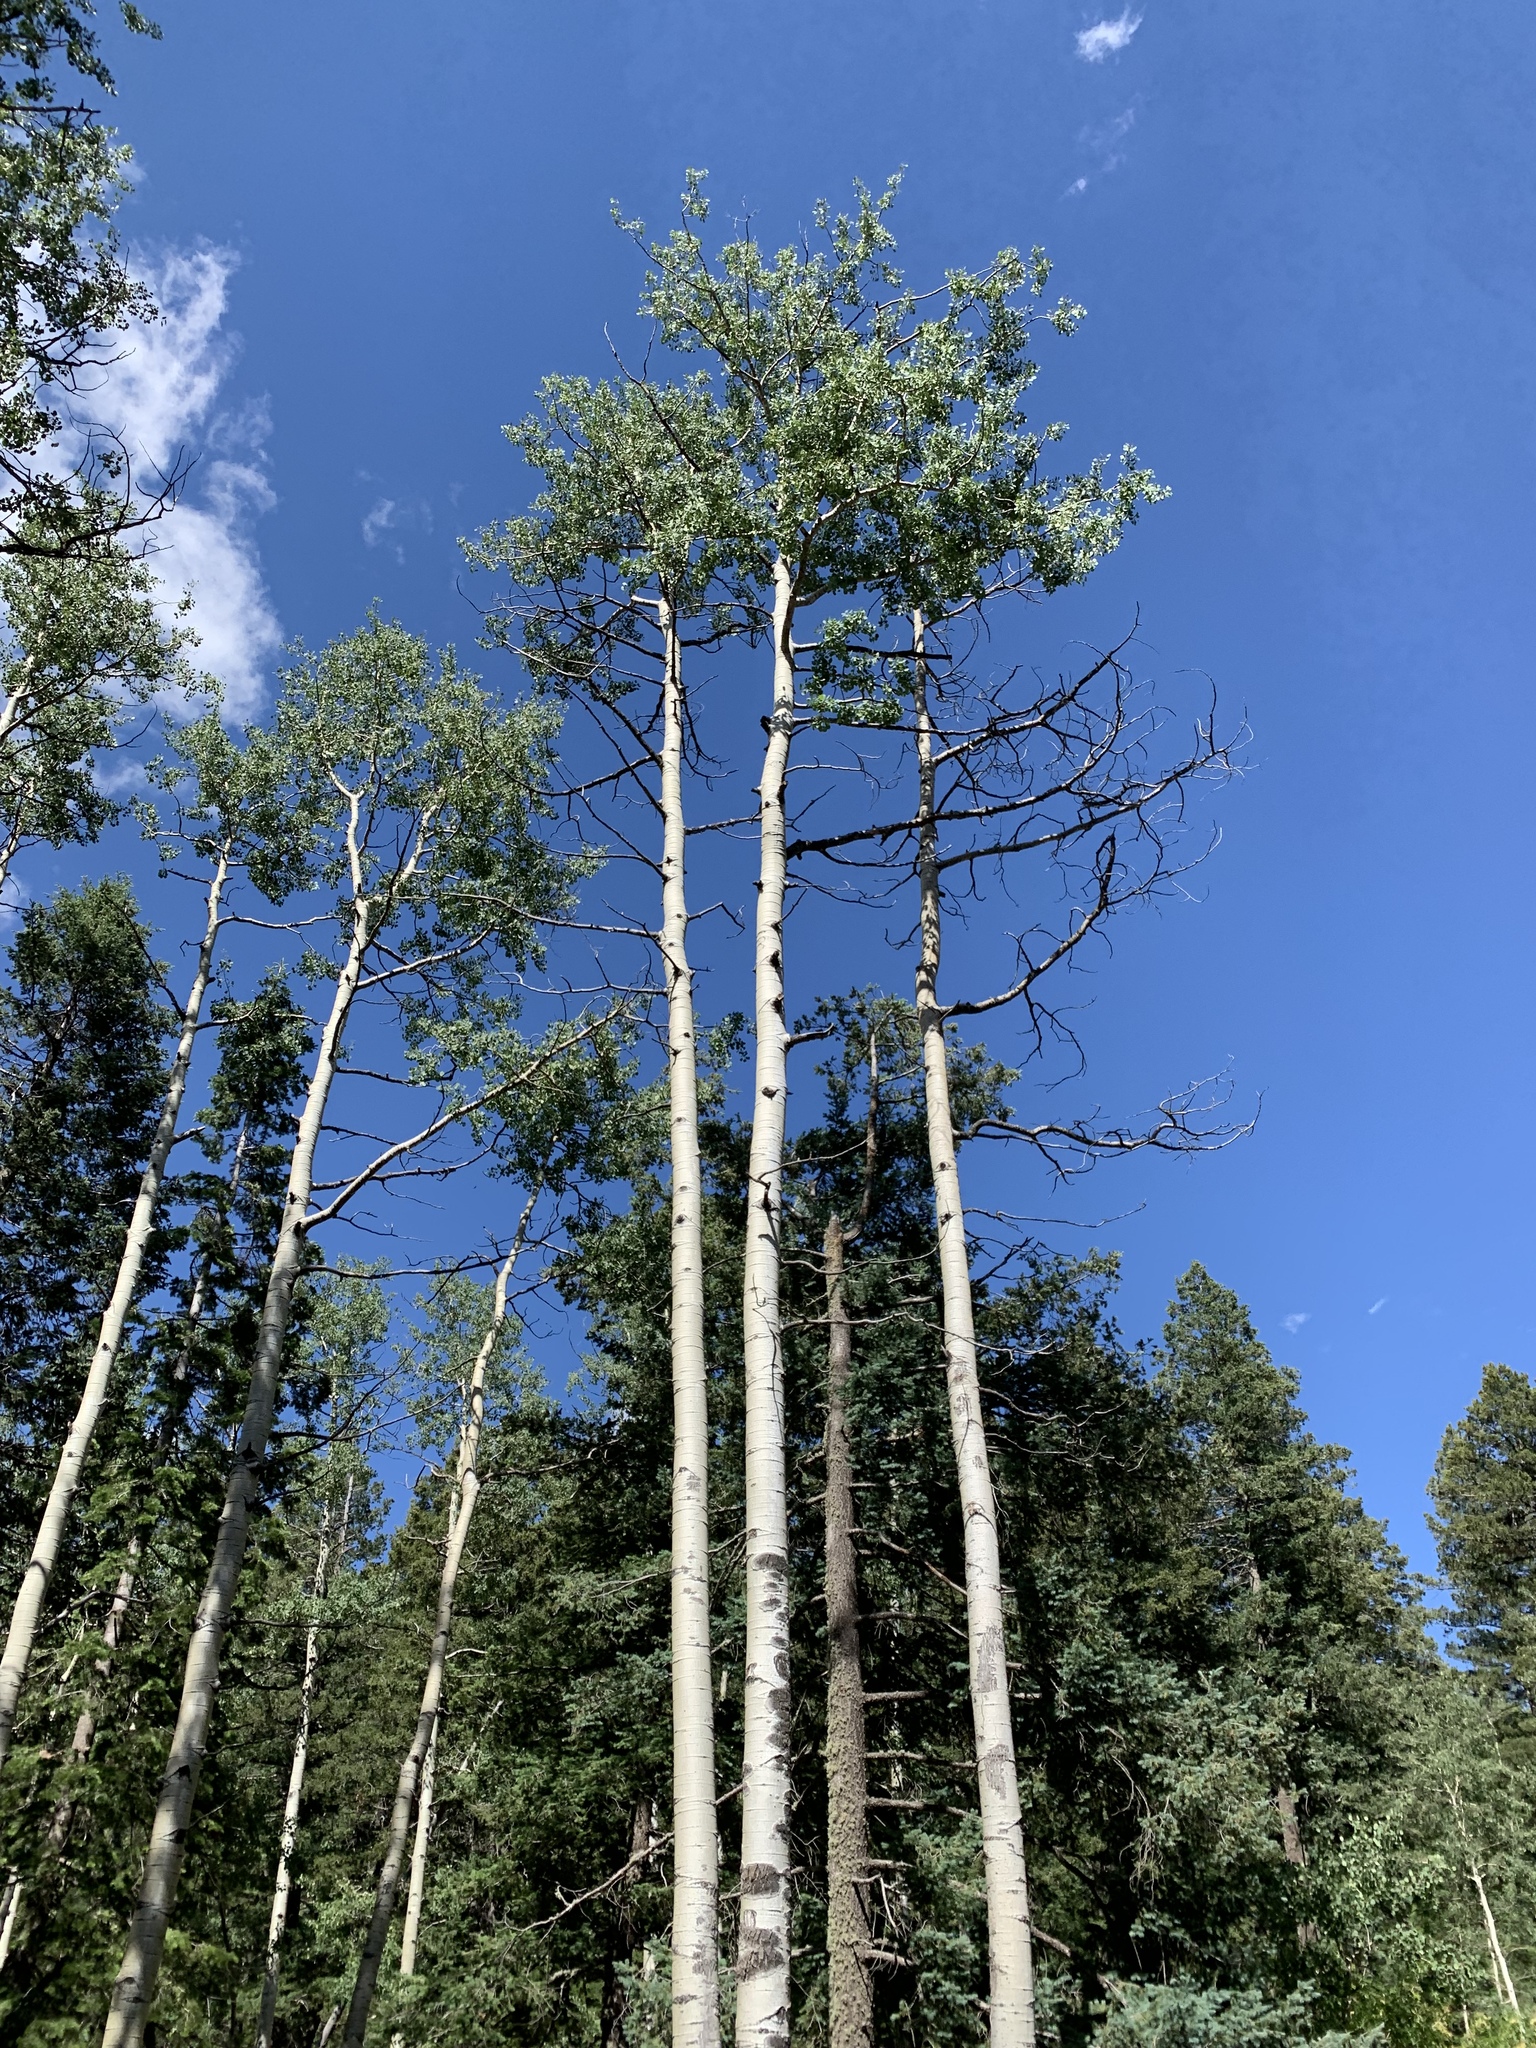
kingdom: Plantae
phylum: Tracheophyta
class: Magnoliopsida
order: Malpighiales
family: Salicaceae
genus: Populus
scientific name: Populus tremuloides
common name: Quaking aspen
